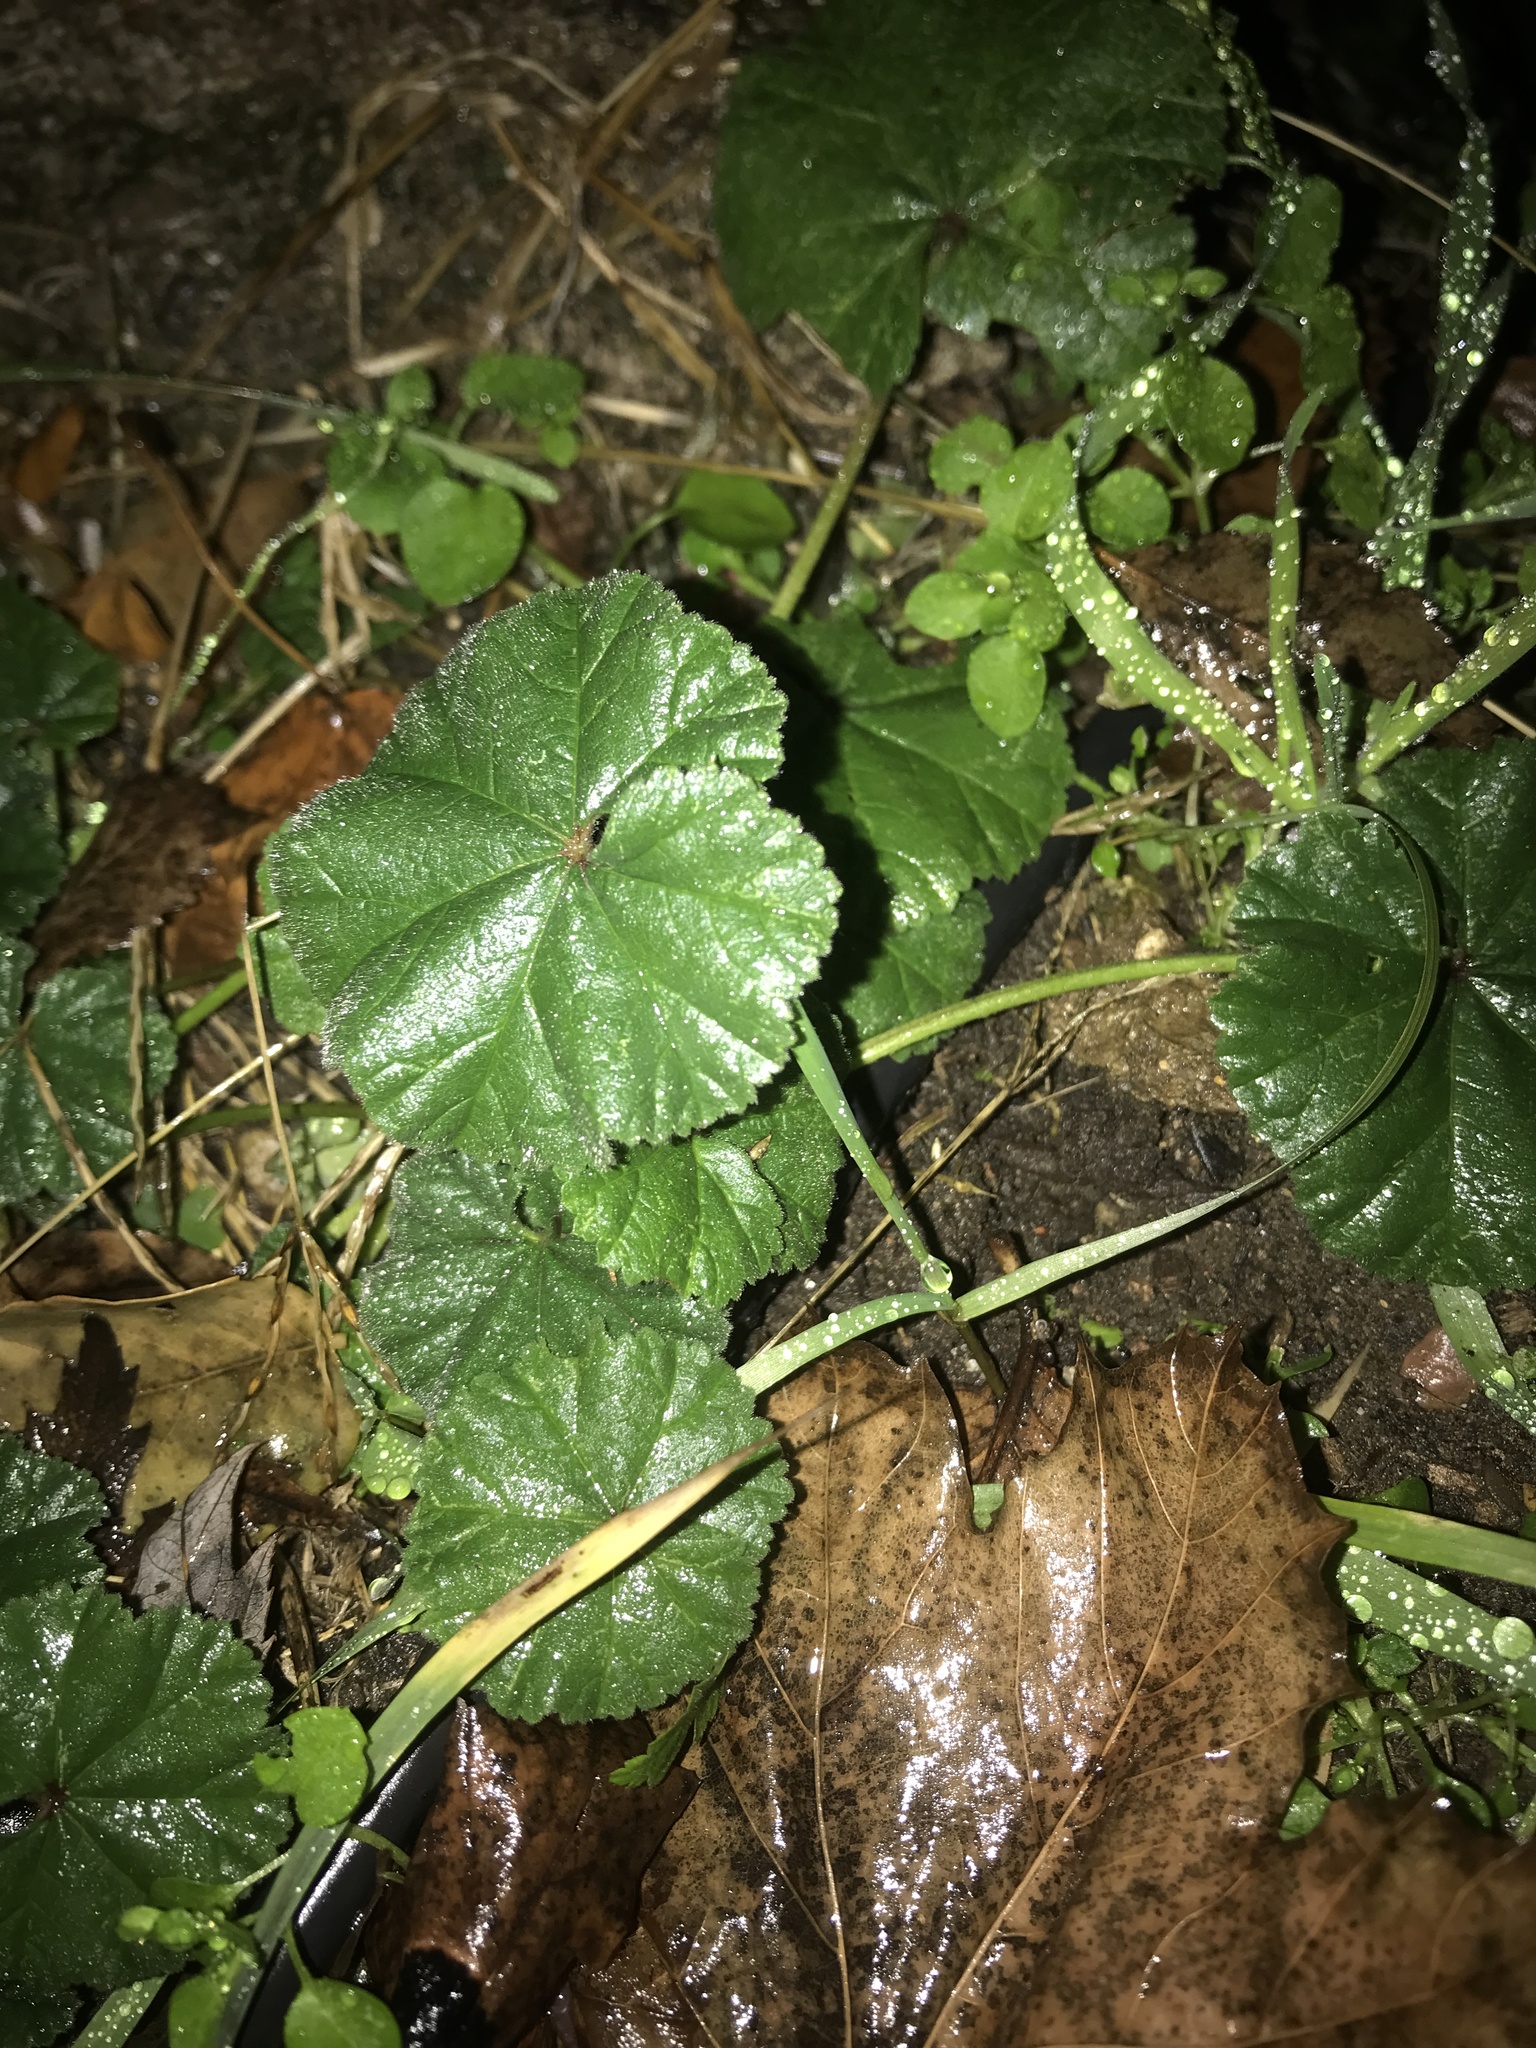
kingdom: Plantae
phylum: Tracheophyta
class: Magnoliopsida
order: Malvales
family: Malvaceae
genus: Malva
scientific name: Malva neglecta
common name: Common mallow
